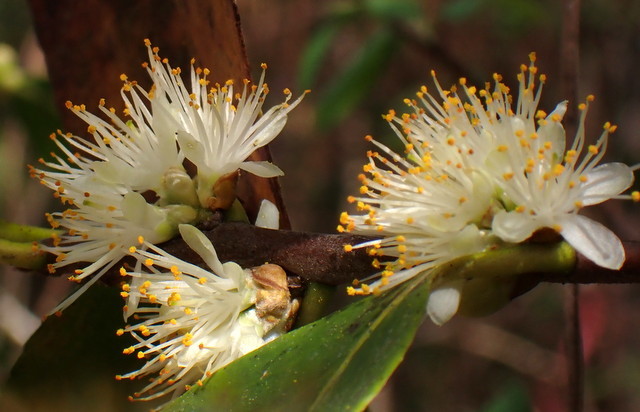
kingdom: Plantae
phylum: Tracheophyta
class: Magnoliopsida
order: Ericales
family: Symplocaceae
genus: Symplocos
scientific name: Symplocos tinctoria
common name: Horse-sugar
